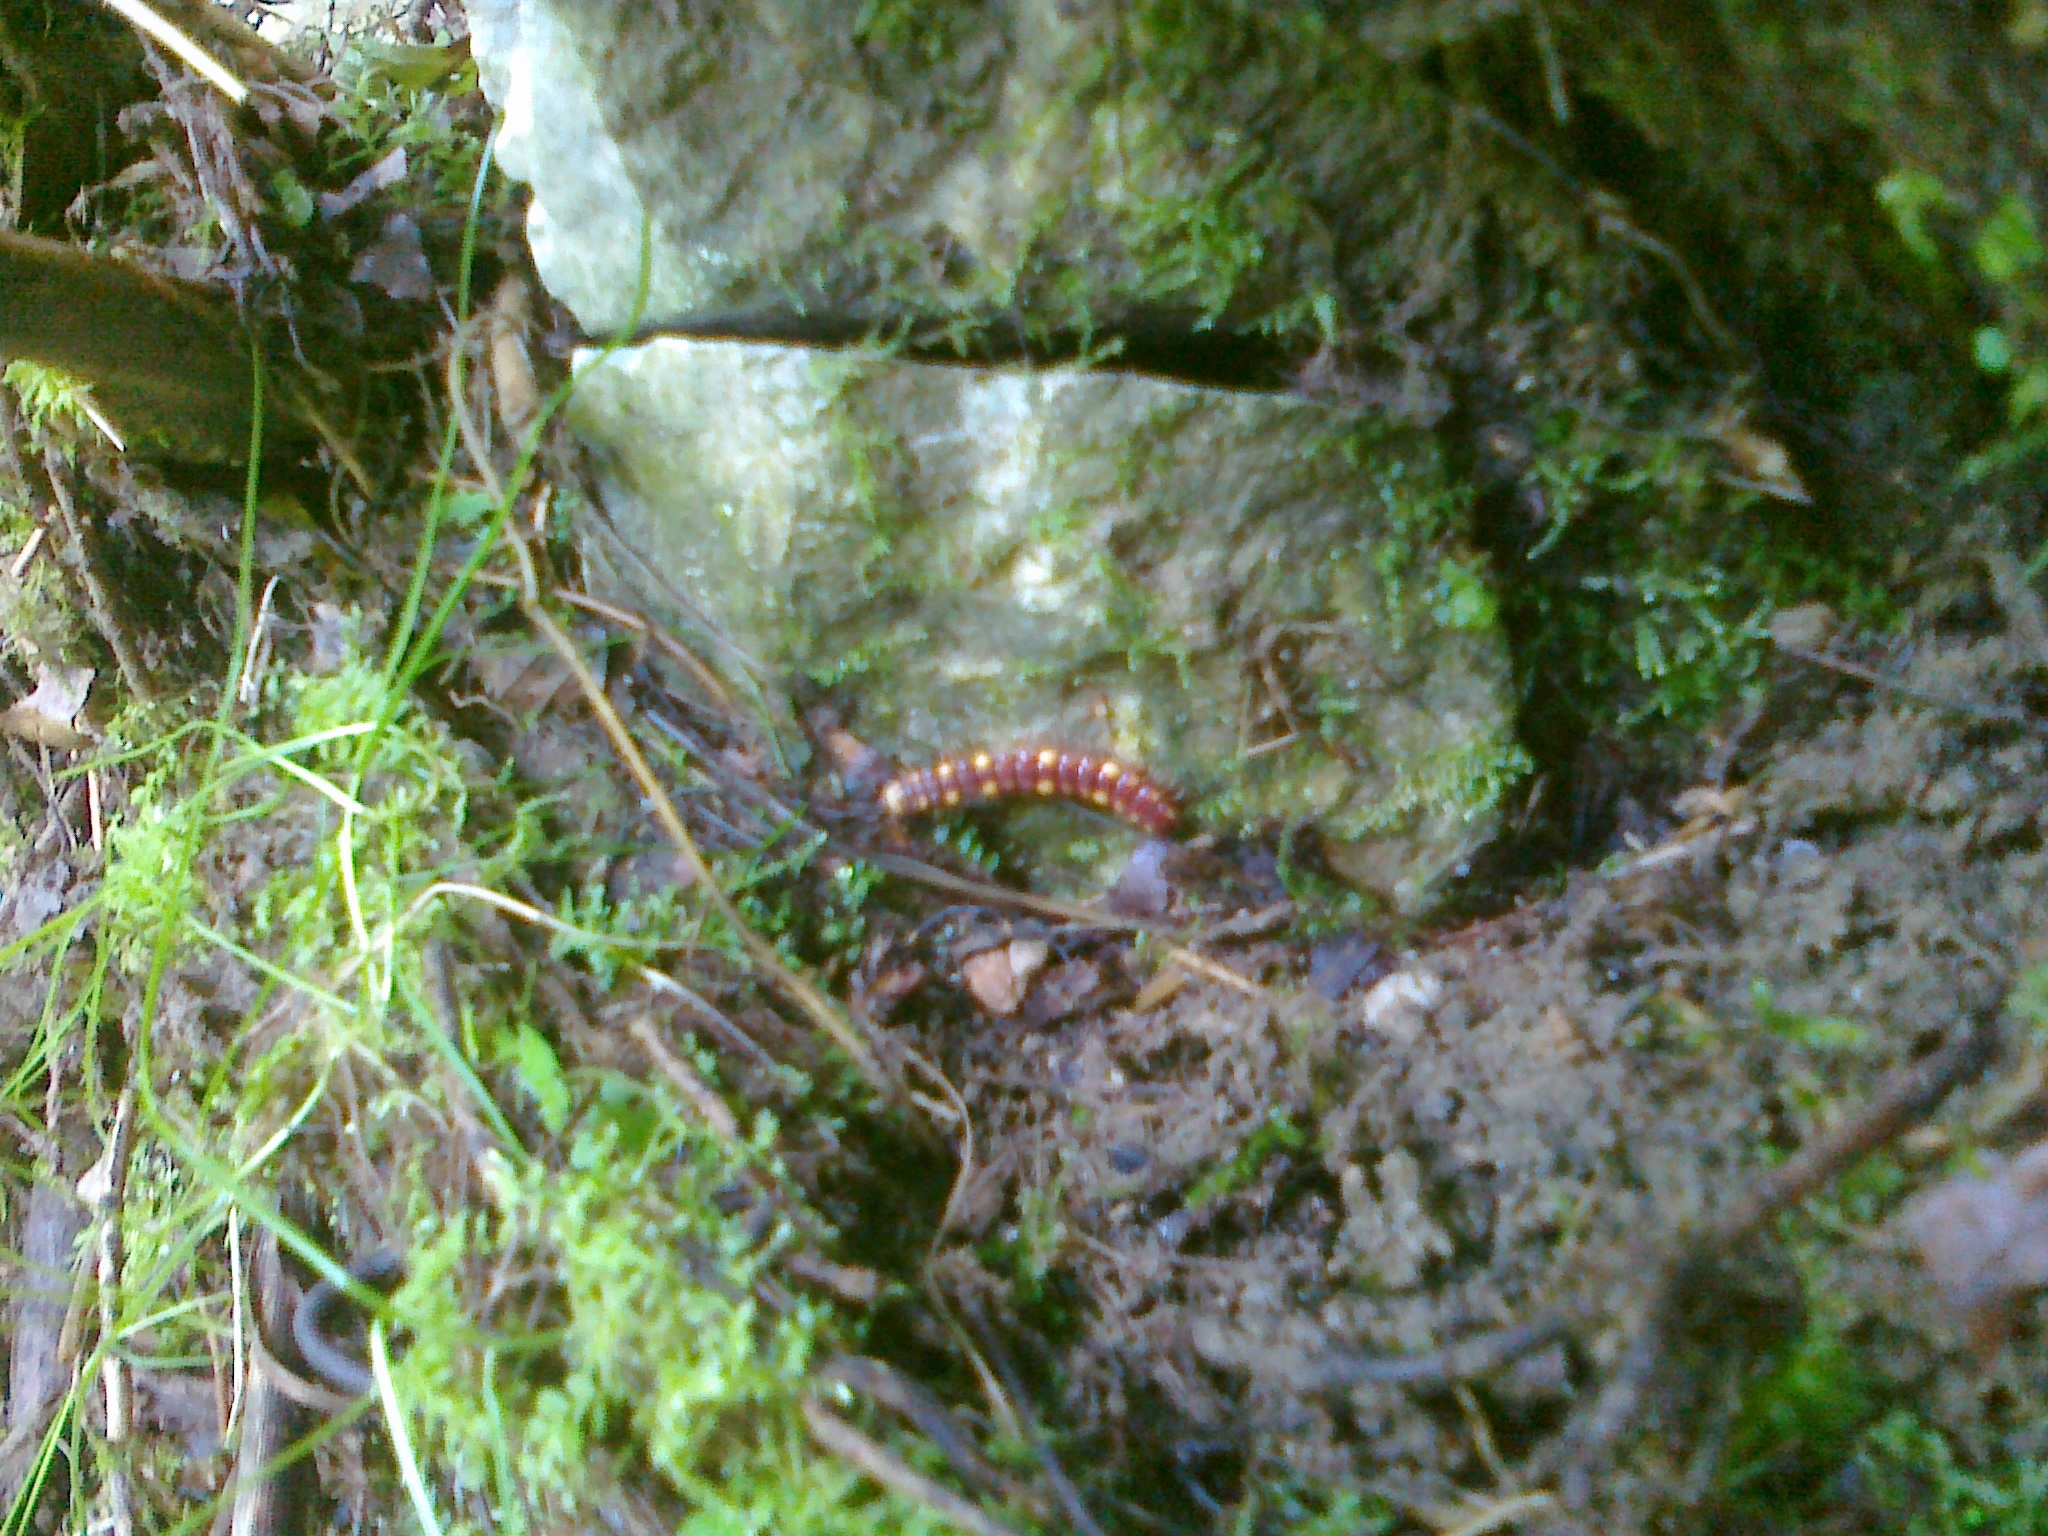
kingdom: Animalia
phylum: Arthropoda
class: Diplopoda
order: Polydesmida
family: Polydesmidae
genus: Polydesmus
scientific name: Polydesmus collaris
